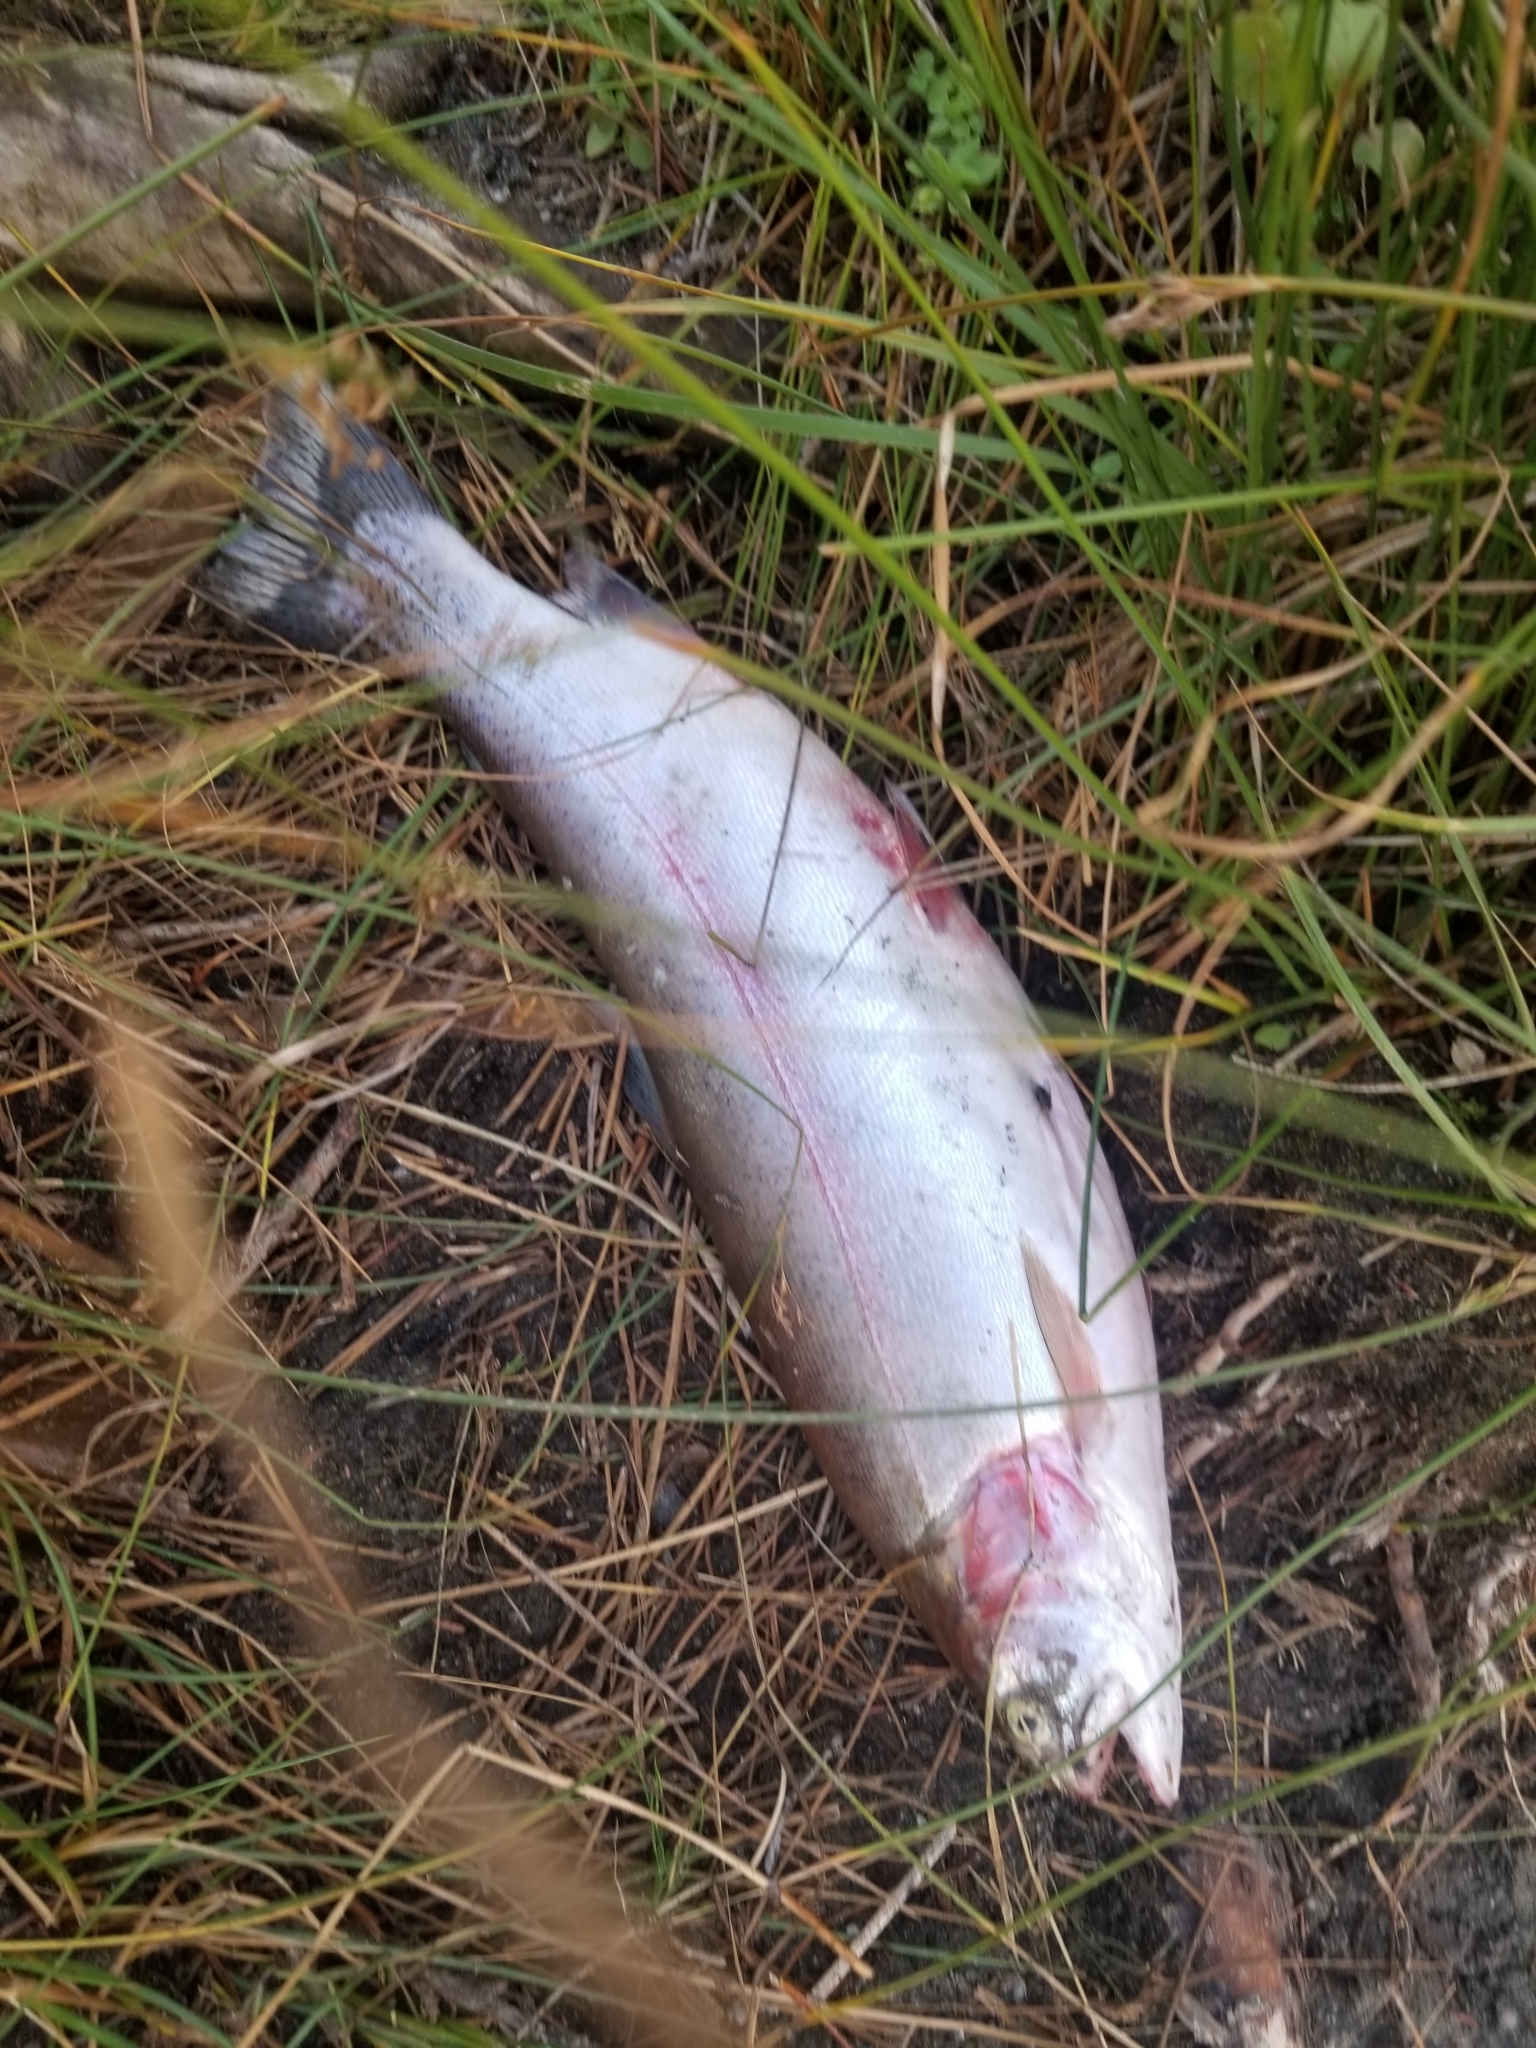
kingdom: Animalia
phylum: Chordata
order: Salmoniformes
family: Salmonidae
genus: Oncorhynchus
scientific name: Oncorhynchus mykiss
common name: Rainbow trout
